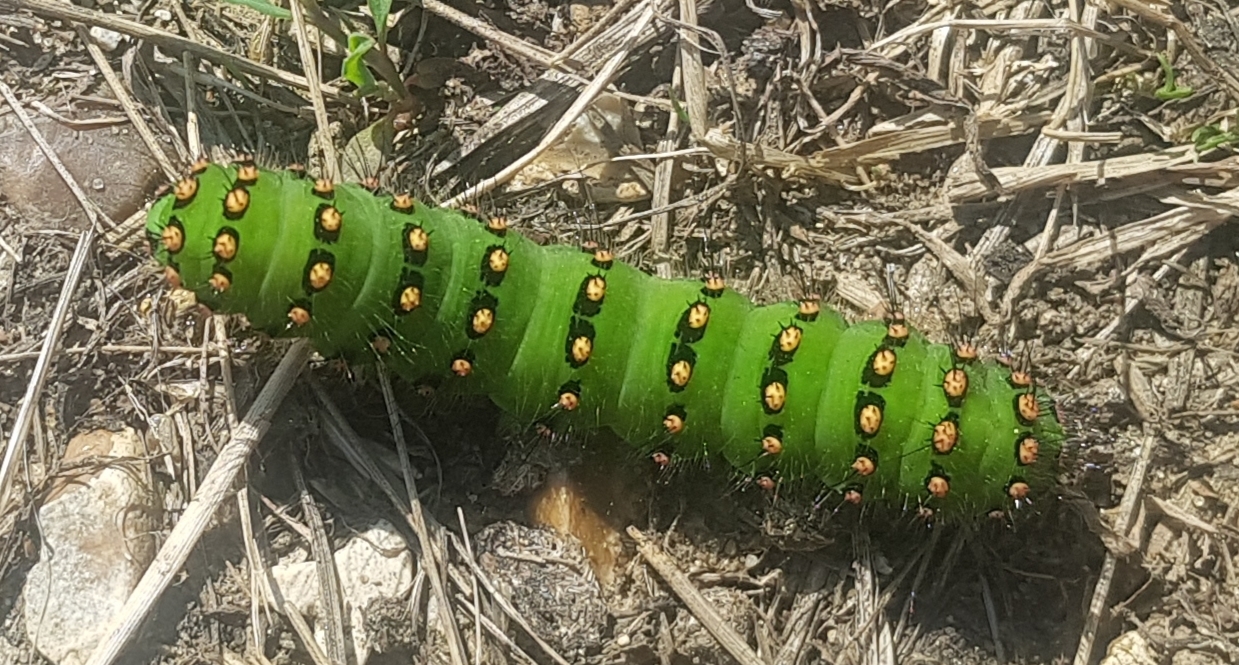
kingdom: Animalia
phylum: Arthropoda
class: Insecta
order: Lepidoptera
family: Saturniidae
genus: Saturnia
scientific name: Saturnia pavonia
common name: Emperor moth
